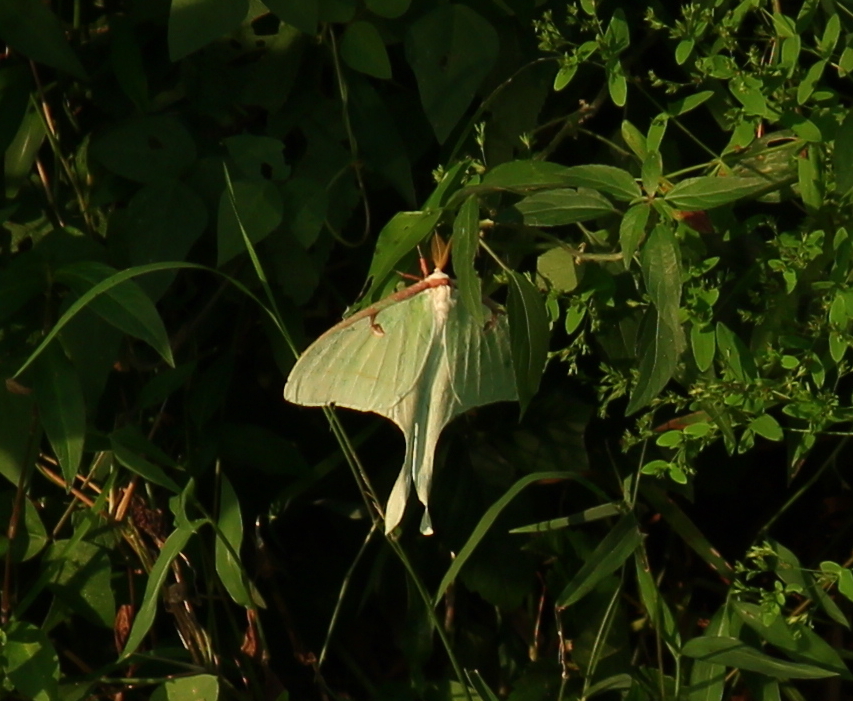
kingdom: Animalia
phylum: Arthropoda
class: Insecta
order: Lepidoptera
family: Saturniidae
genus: Actias
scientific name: Actias luna
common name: Luna moth
